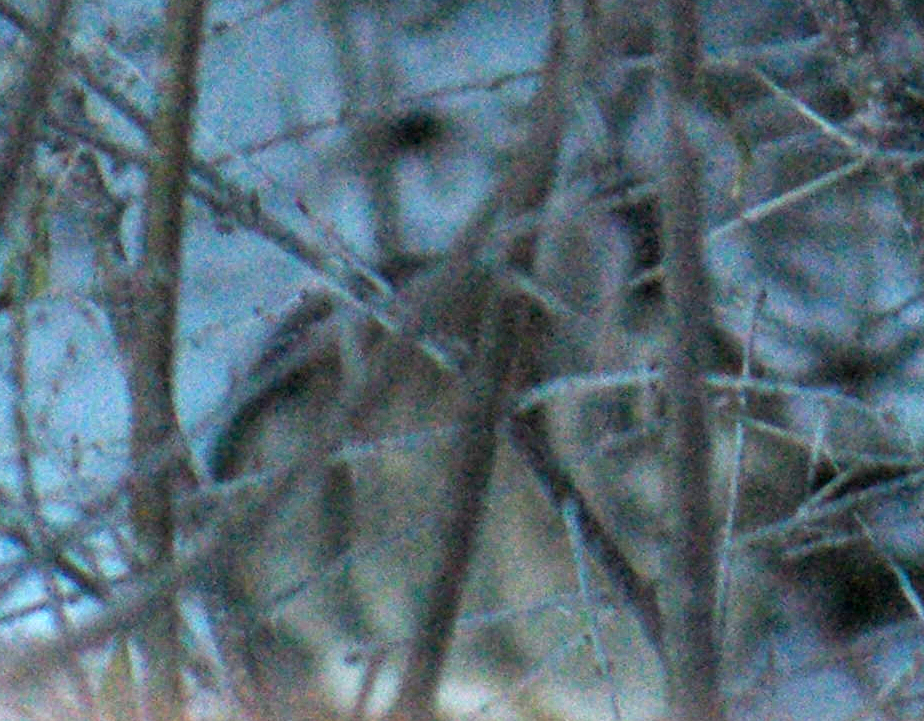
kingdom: Animalia
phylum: Chordata
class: Mammalia
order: Lagomorpha
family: Leporidae
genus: Sylvilagus
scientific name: Sylvilagus floridanus
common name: Eastern cottontail
